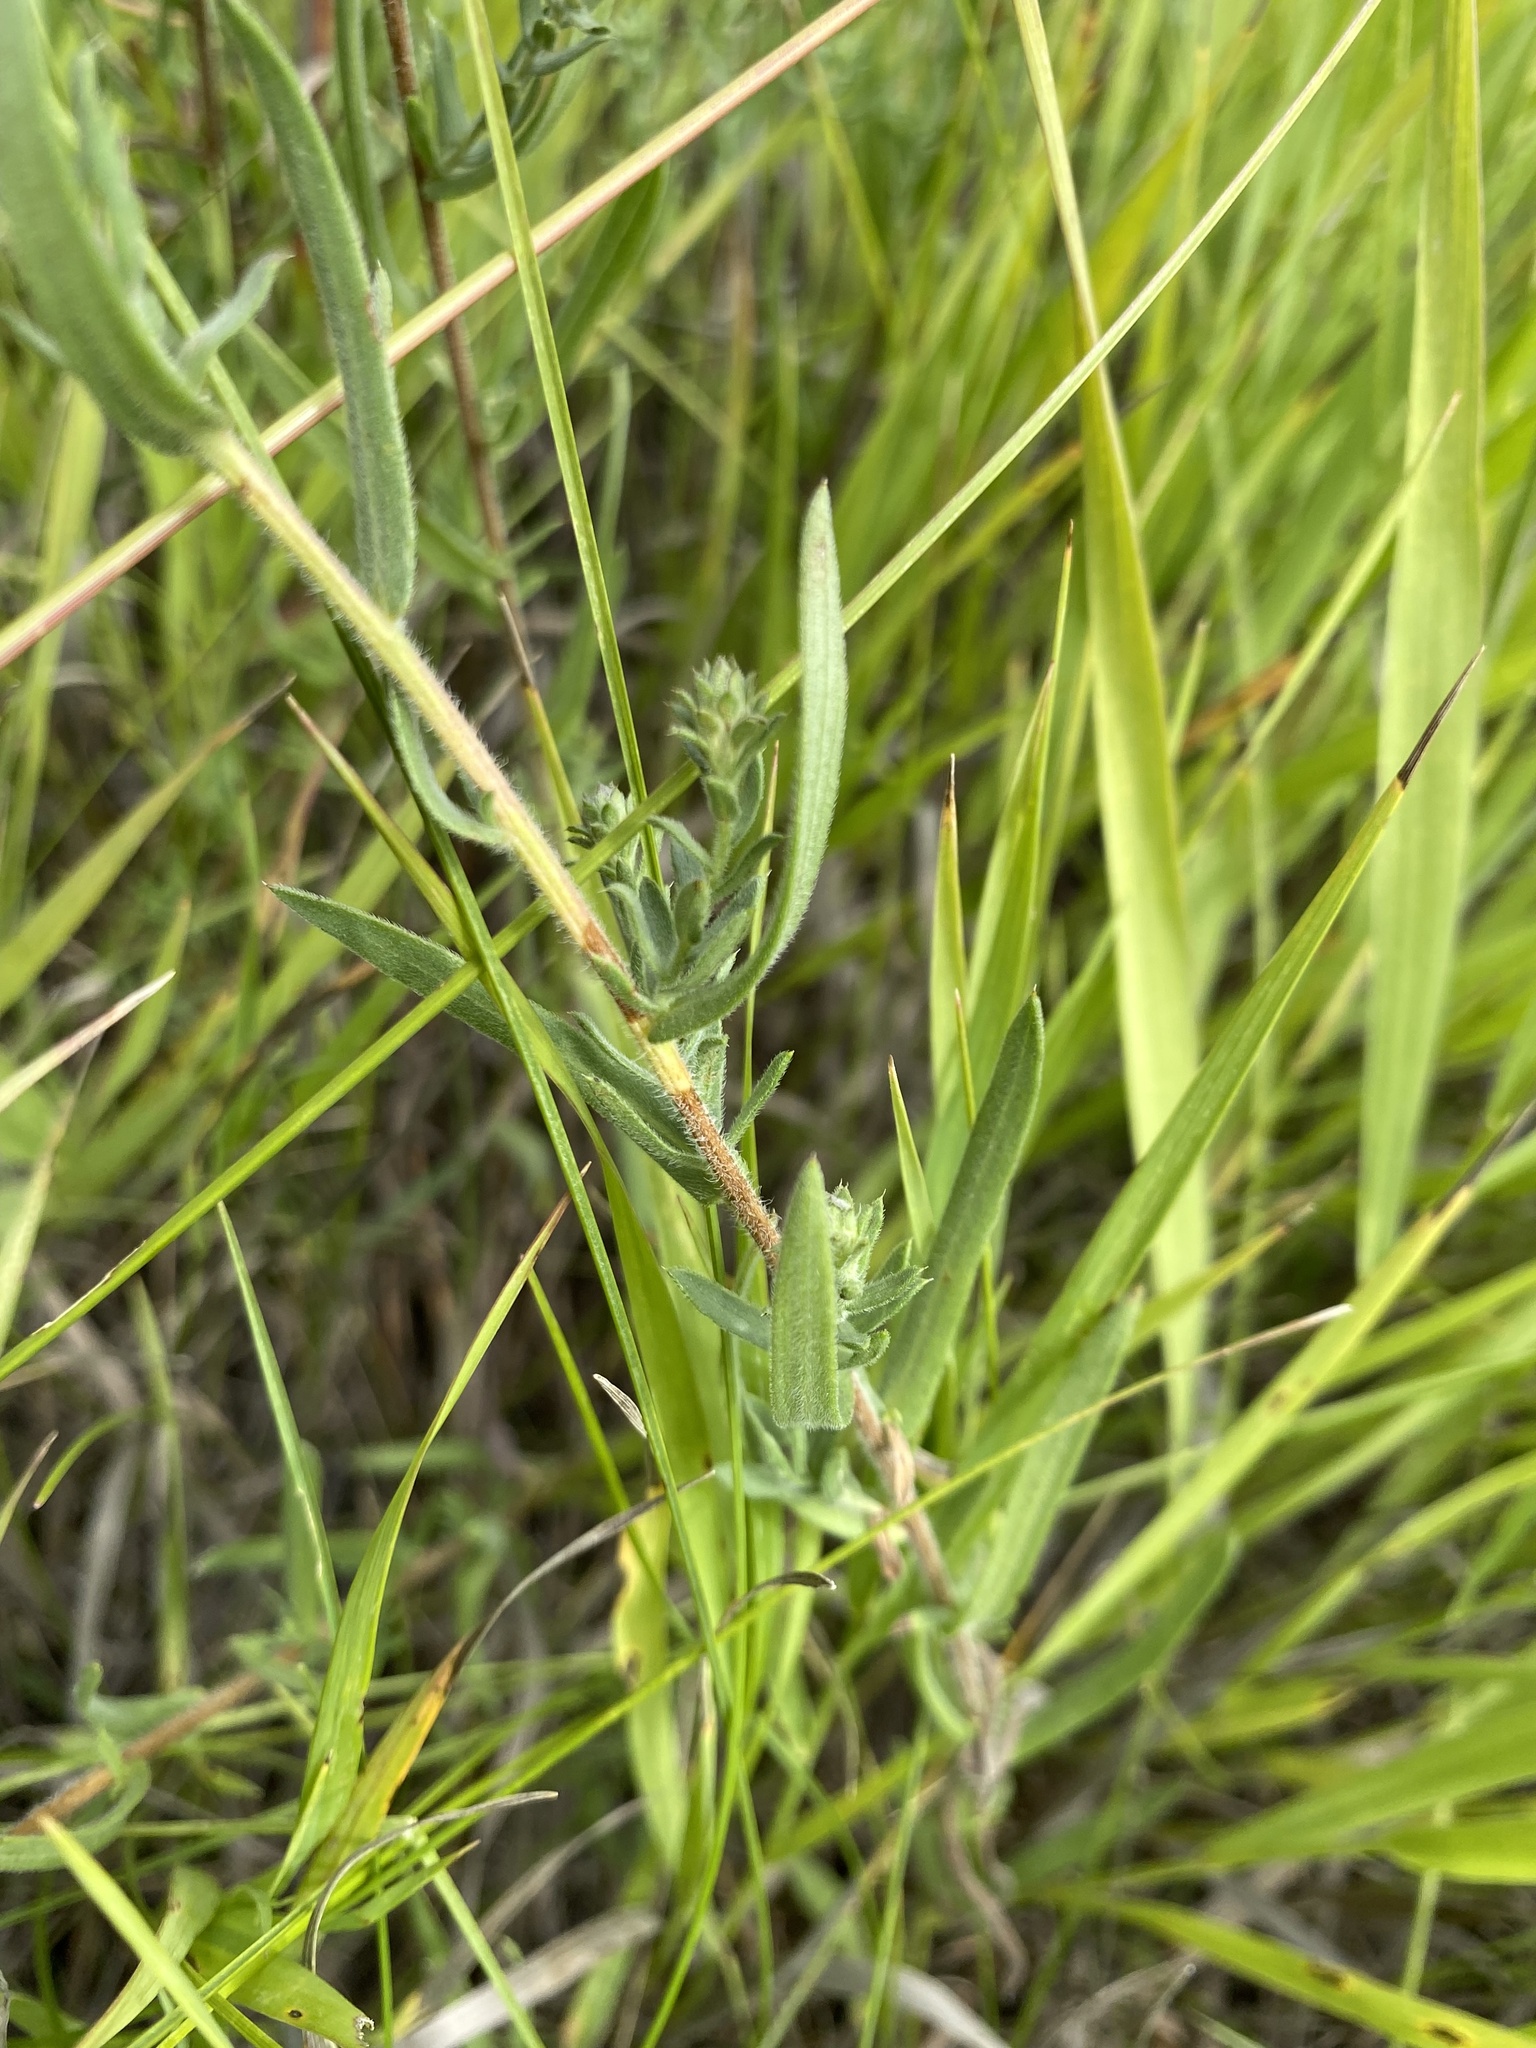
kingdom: Plantae
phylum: Tracheophyta
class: Magnoliopsida
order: Asterales
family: Asteraceae
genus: Symphyotrichum
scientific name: Symphyotrichum falcatum
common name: Creeping white prairie aster
